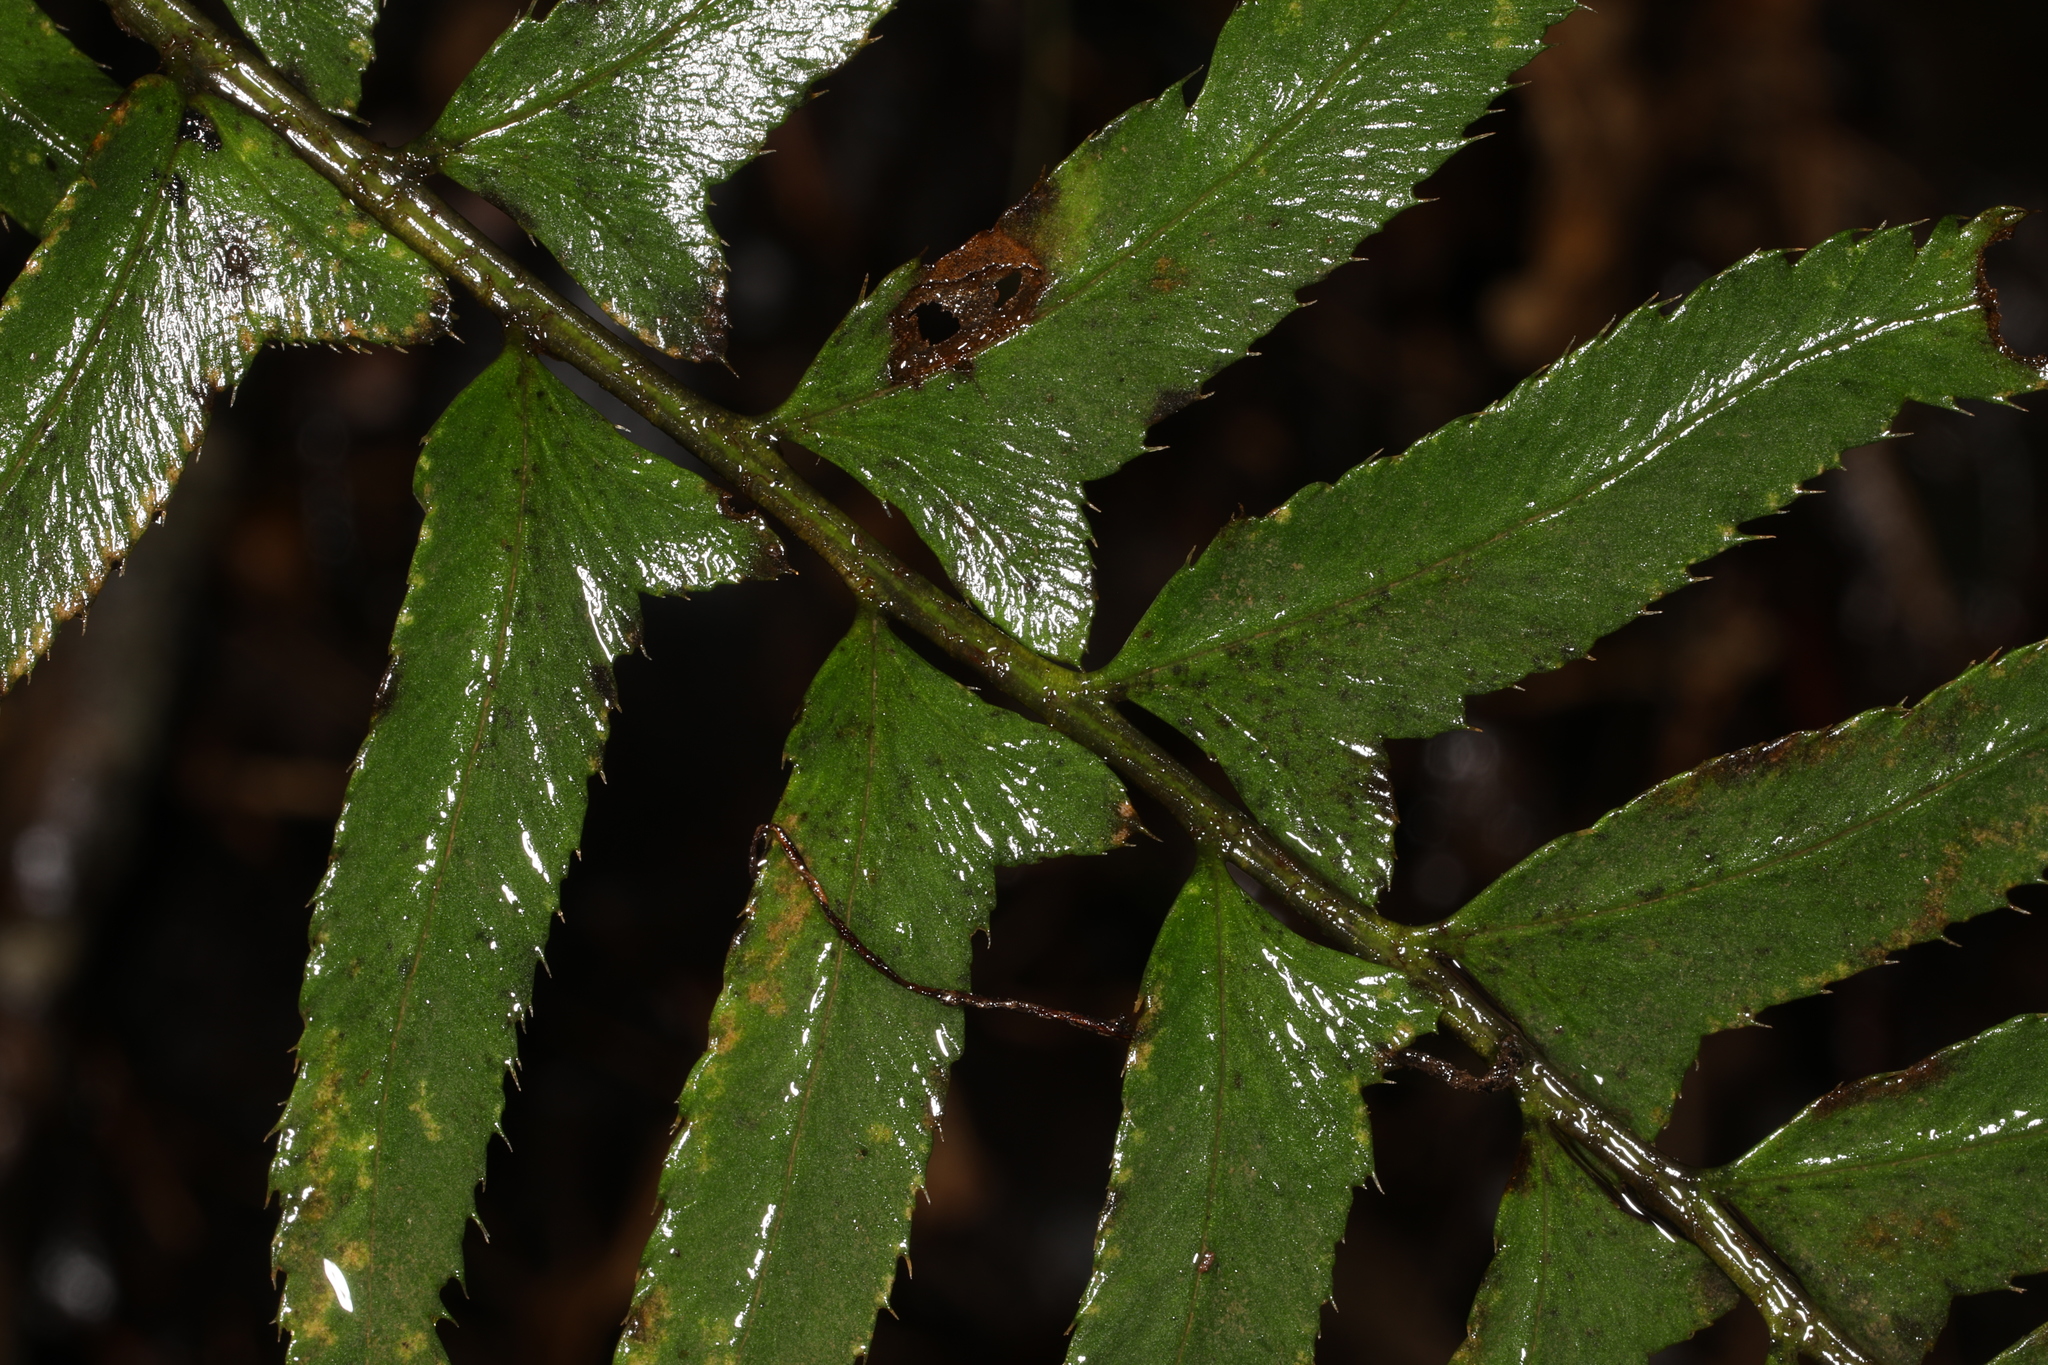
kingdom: Plantae
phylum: Tracheophyta
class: Polypodiopsida
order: Polypodiales
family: Dryopteridaceae
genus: Polystichum
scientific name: Polystichum acrostichoides
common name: Christmas fern
